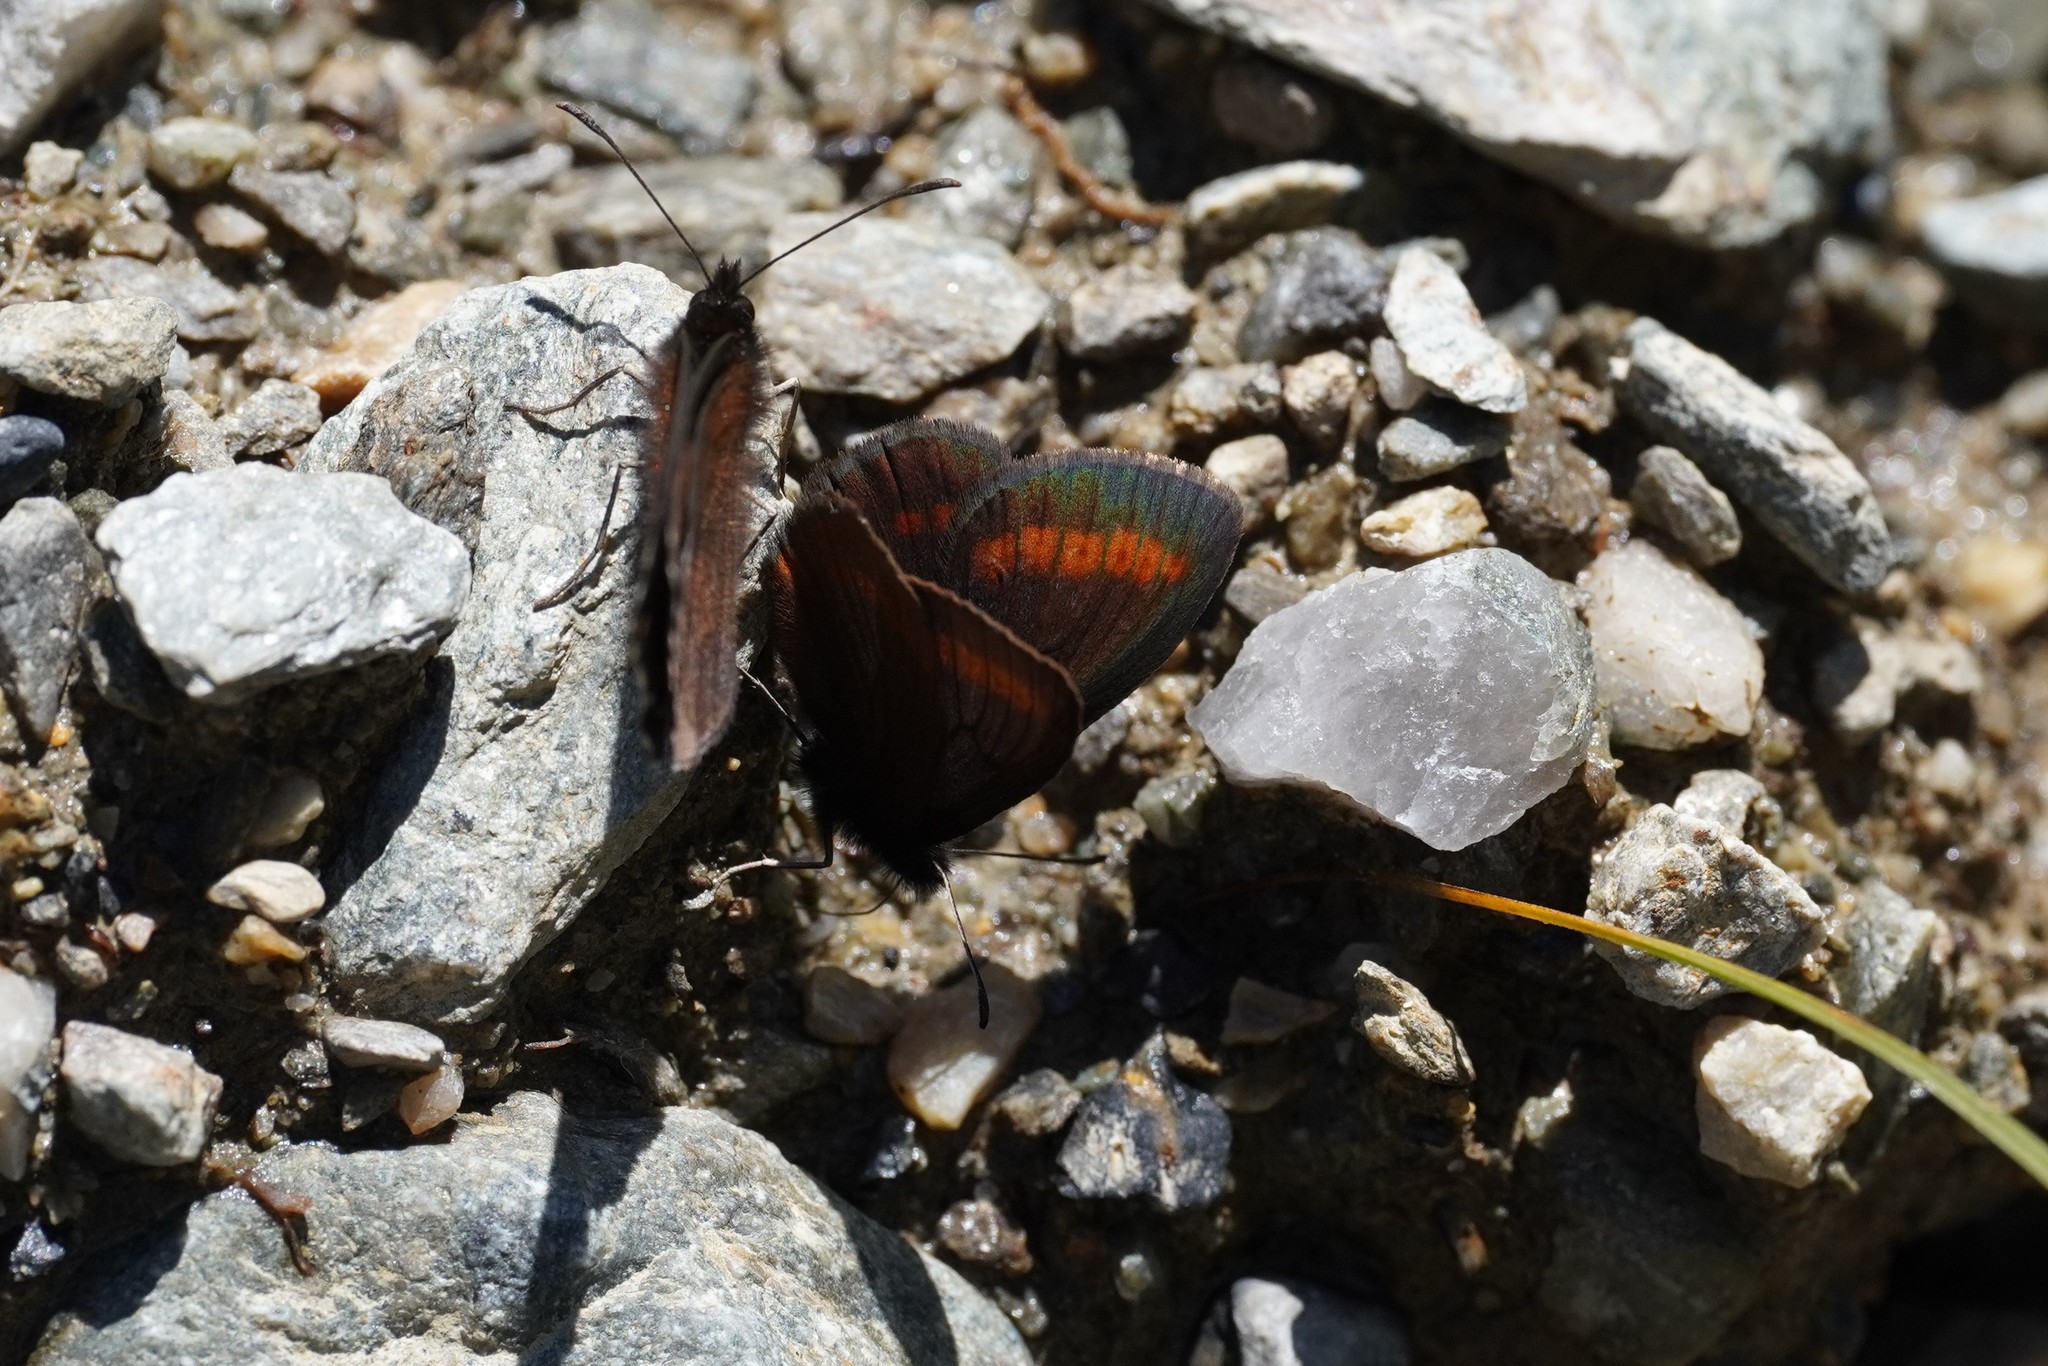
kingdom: Animalia
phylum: Arthropoda
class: Insecta
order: Lepidoptera
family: Nymphalidae
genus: Erebia
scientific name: Erebia
